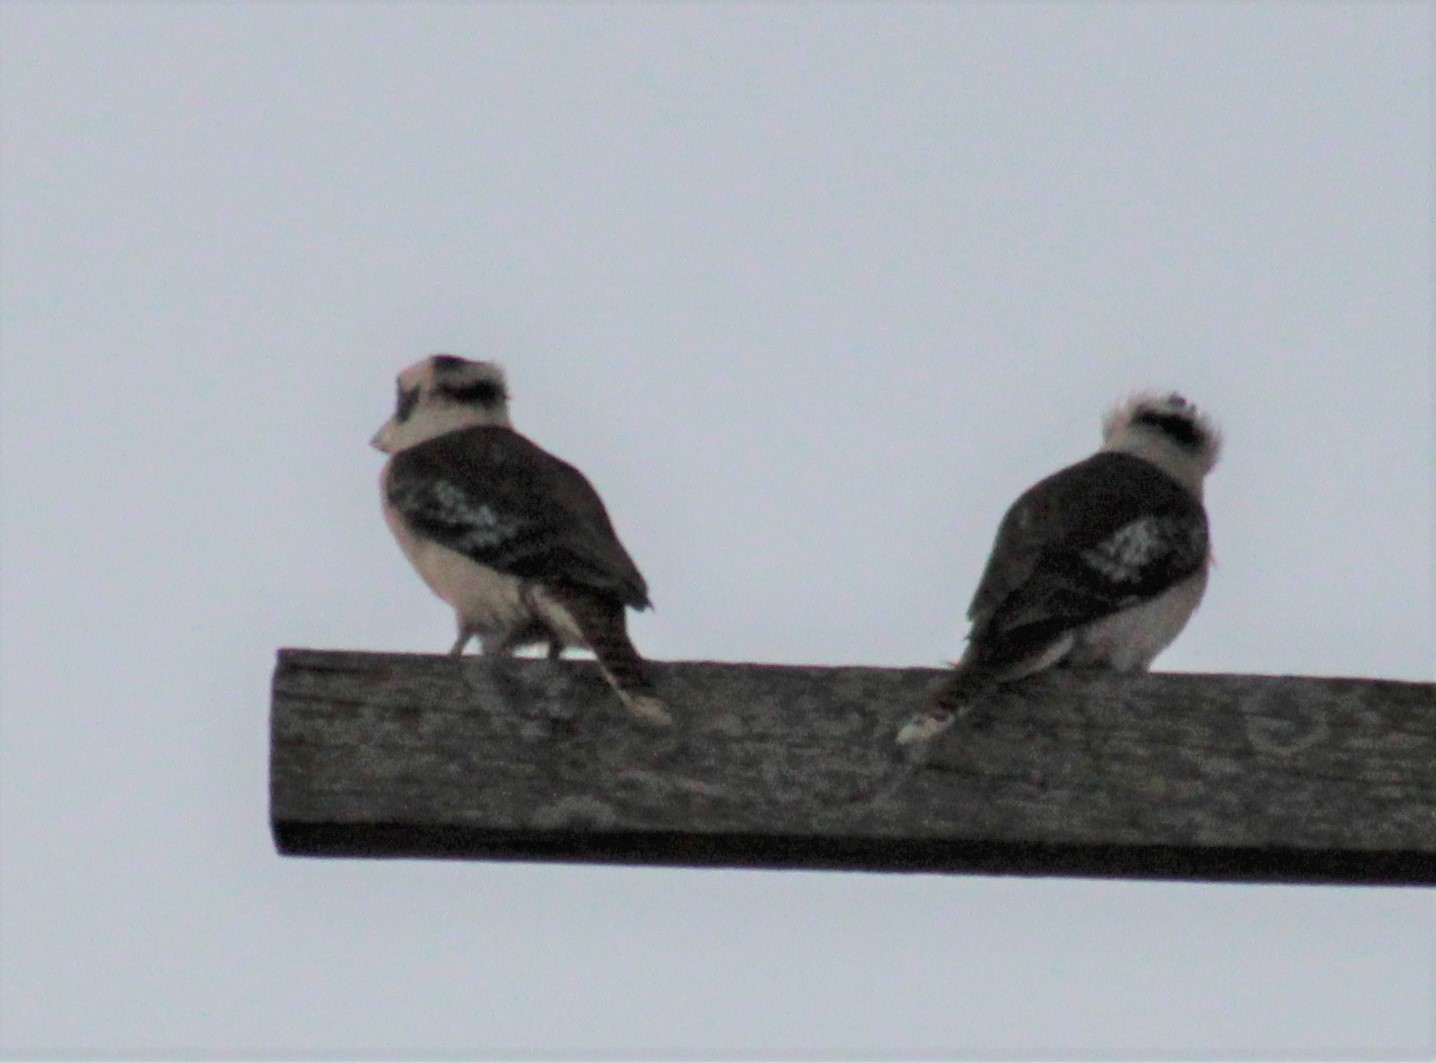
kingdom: Animalia
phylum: Chordata
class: Aves
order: Coraciiformes
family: Alcedinidae
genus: Dacelo
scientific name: Dacelo novaeguineae
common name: Laughing kookaburra
